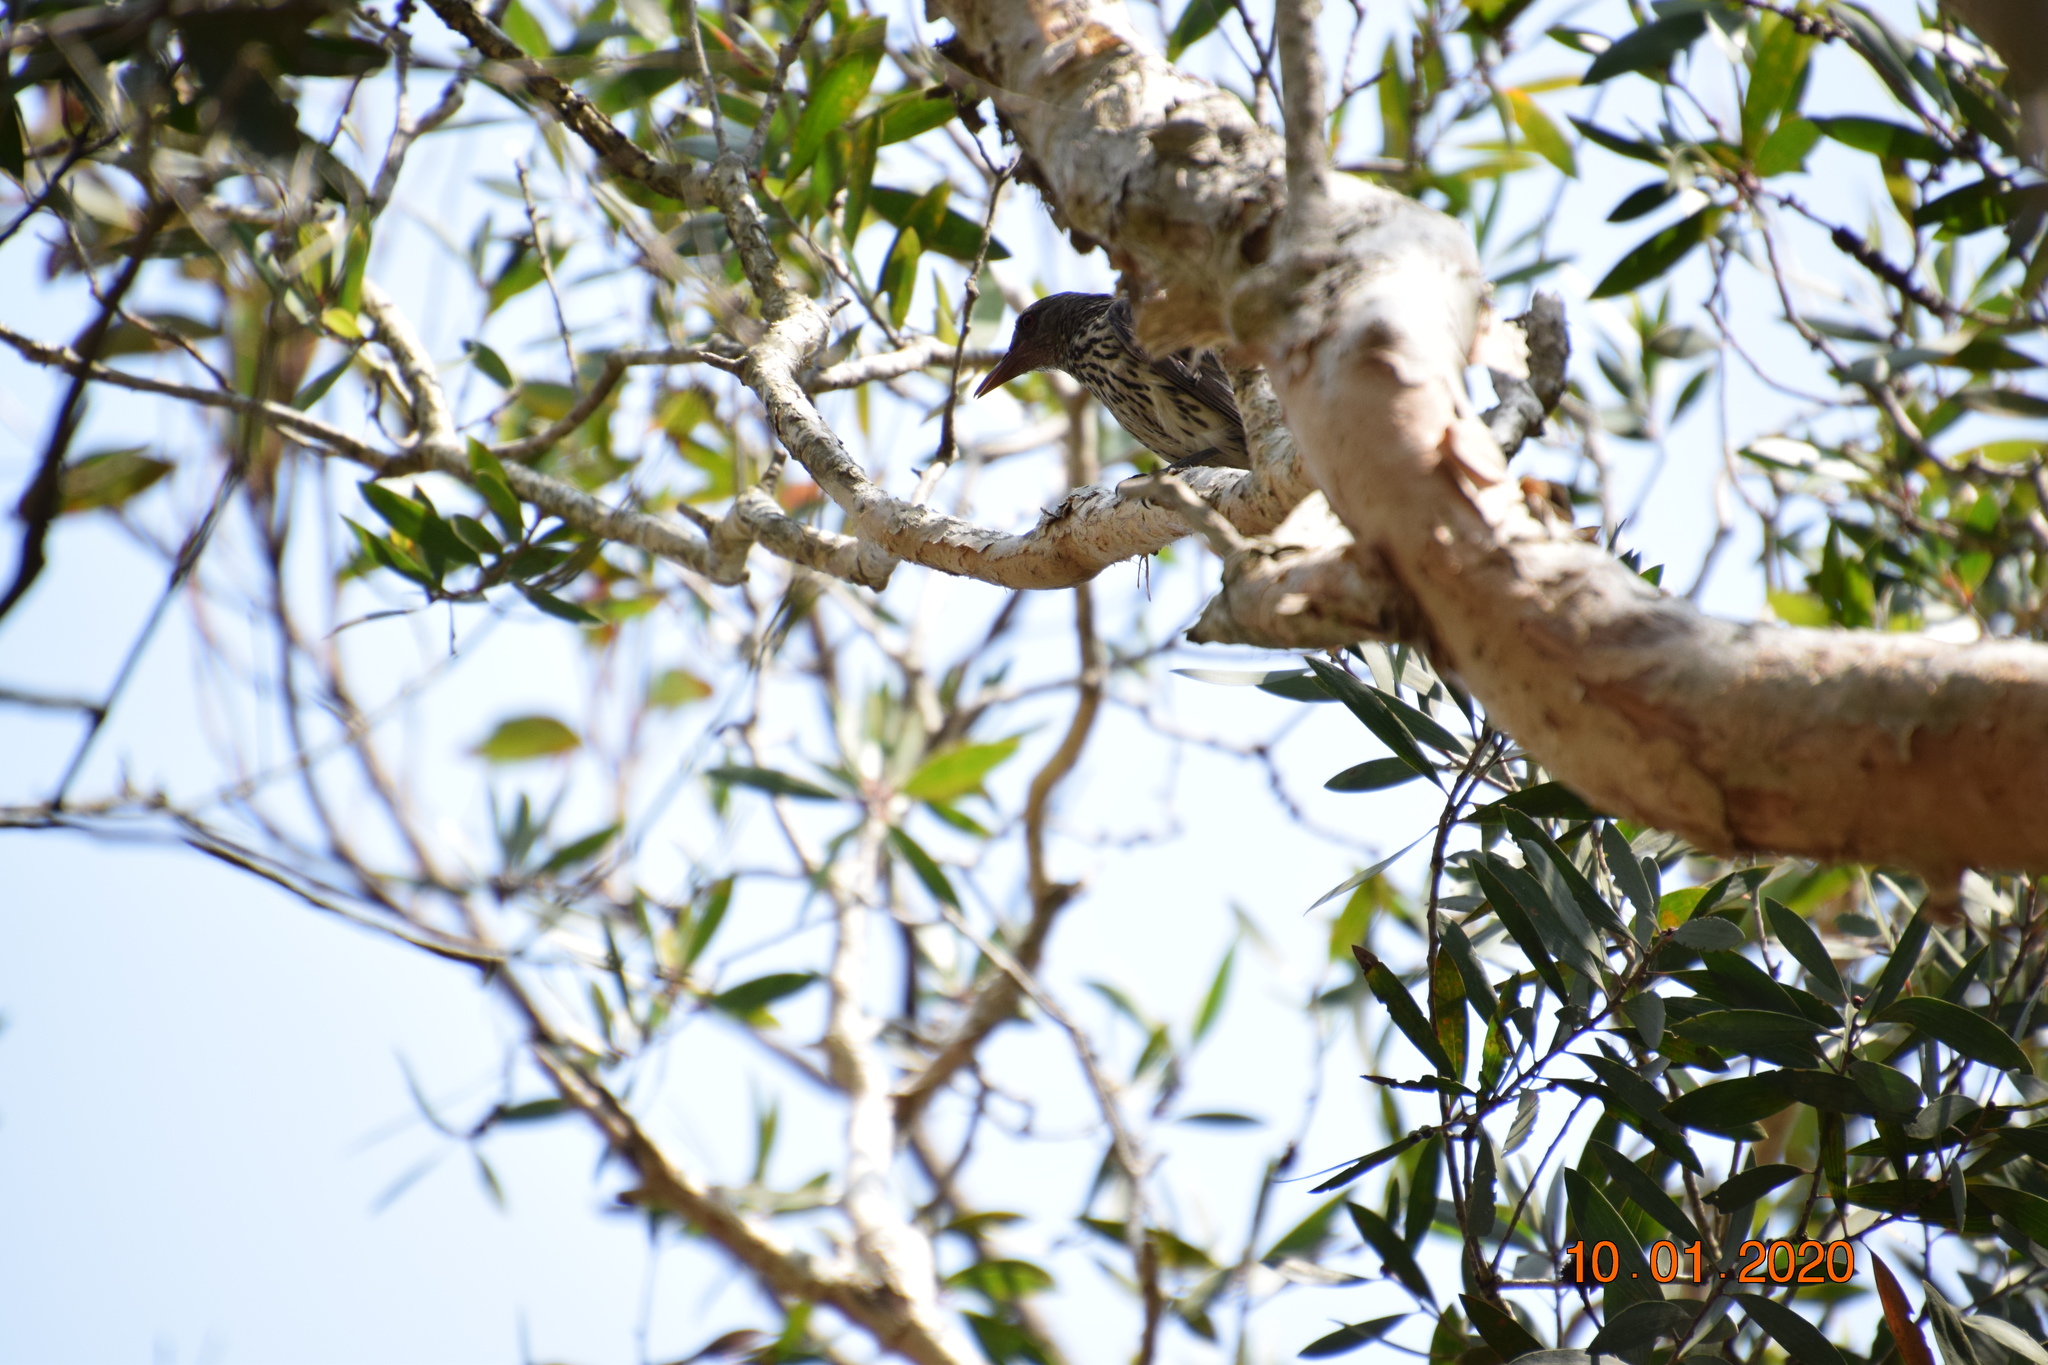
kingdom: Animalia
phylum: Chordata
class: Aves
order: Passeriformes
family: Oriolidae
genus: Oriolus
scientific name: Oriolus sagittatus
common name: Olive-backed oriole
